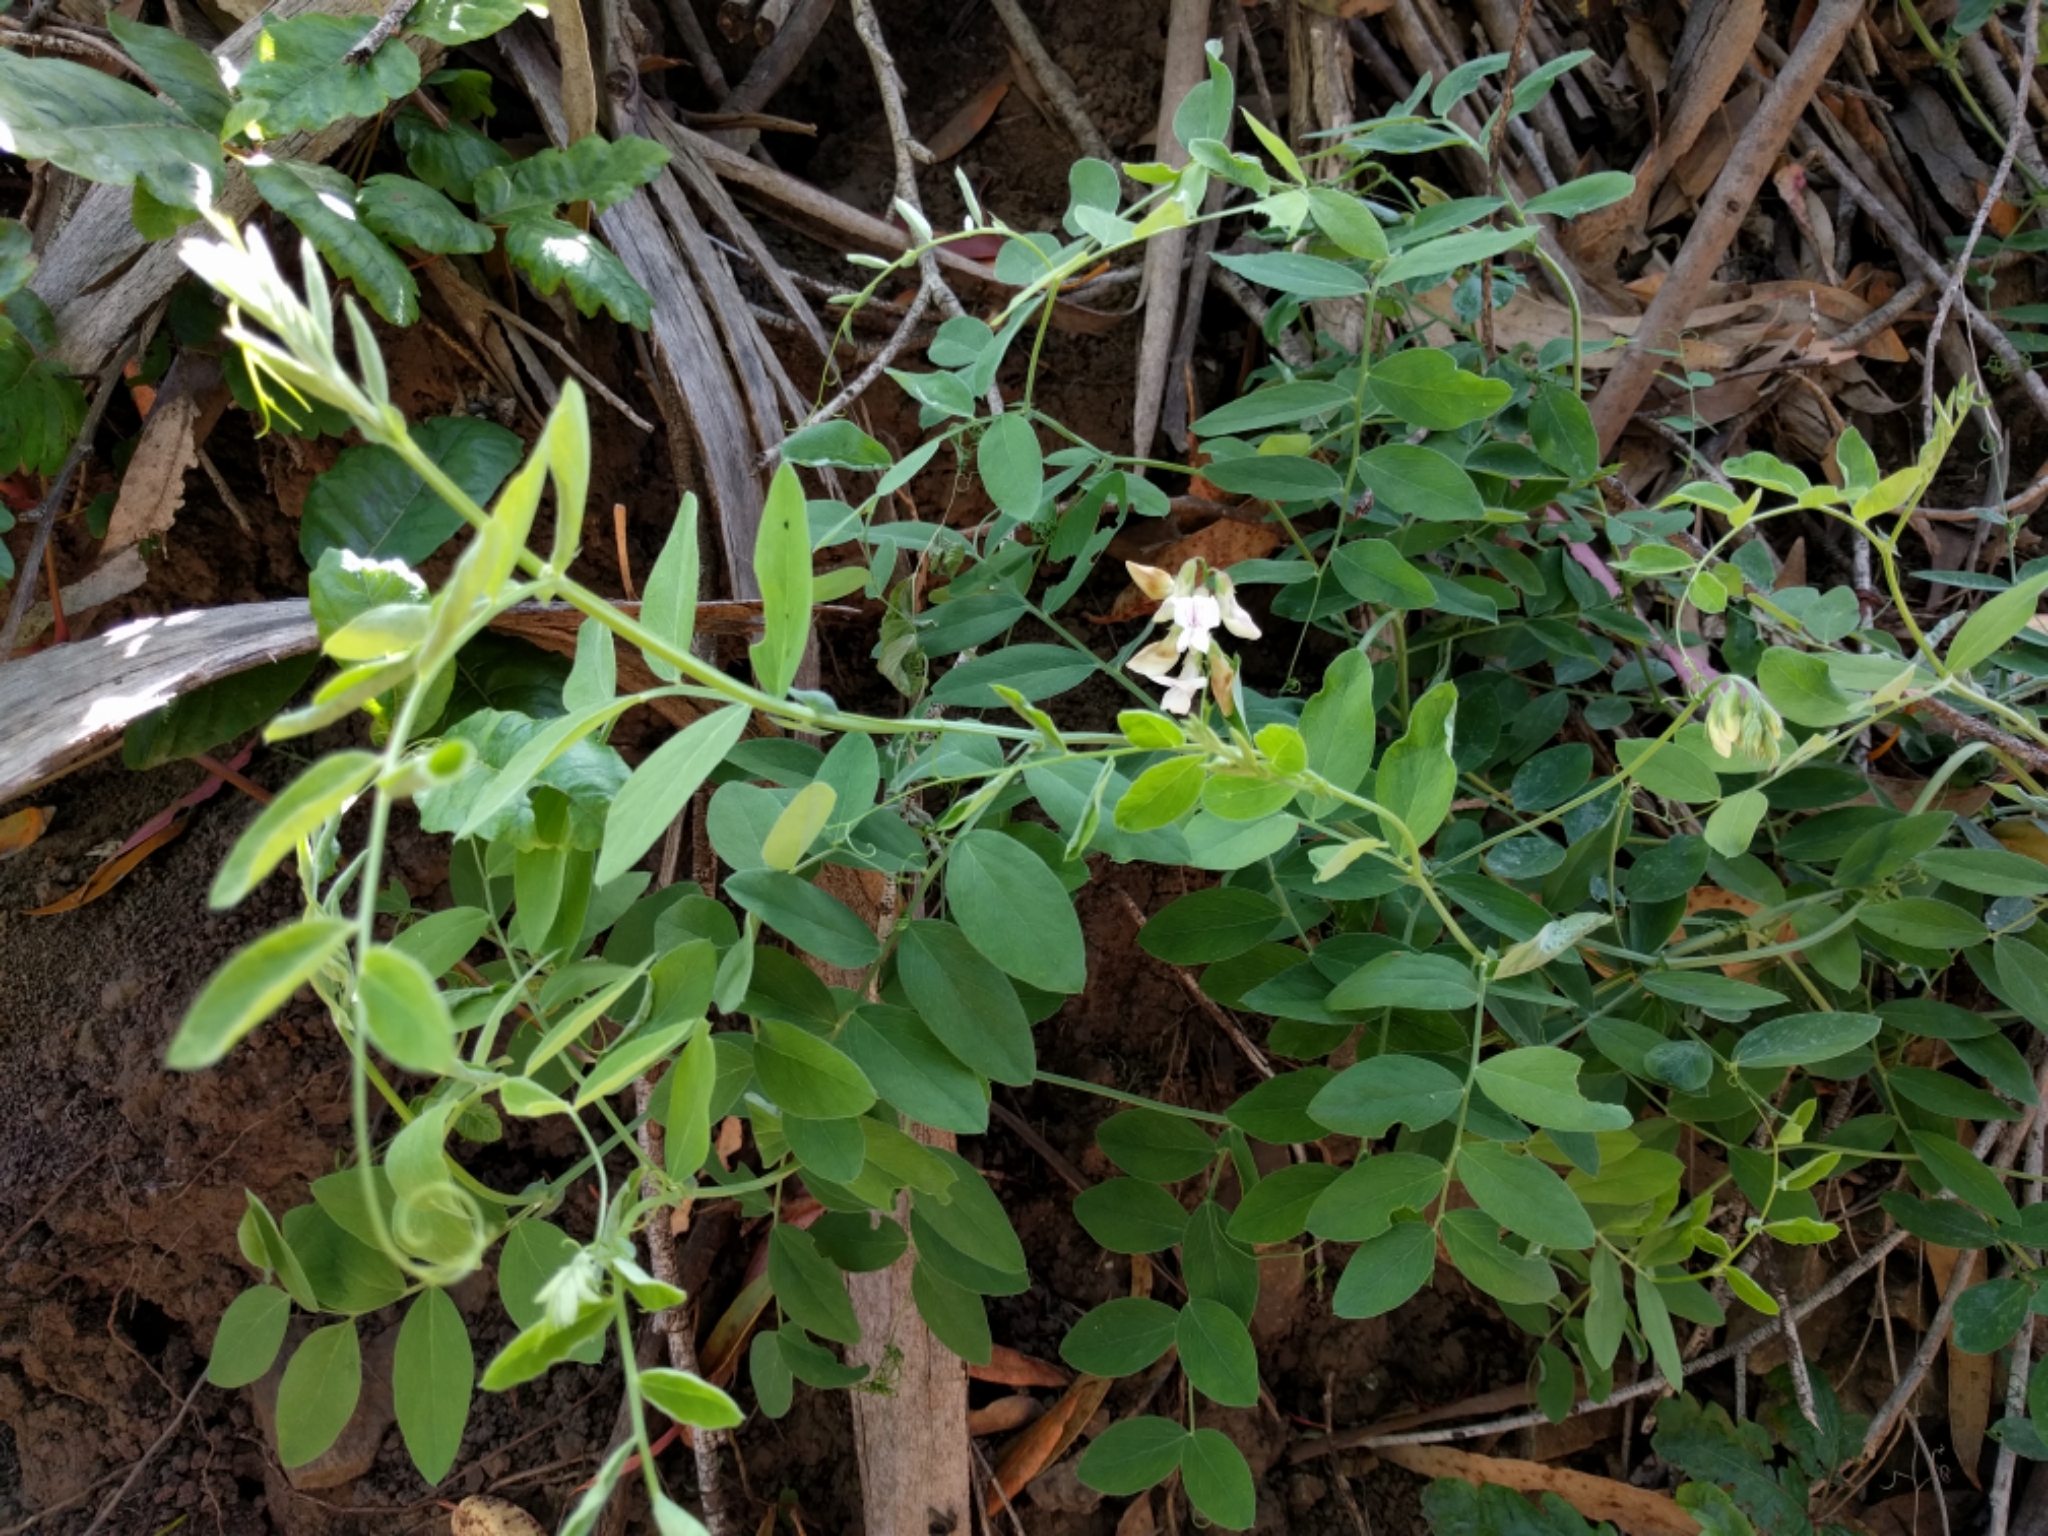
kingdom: Plantae
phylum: Tracheophyta
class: Magnoliopsida
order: Fabales
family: Fabaceae
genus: Lathyrus
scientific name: Lathyrus vestitus
